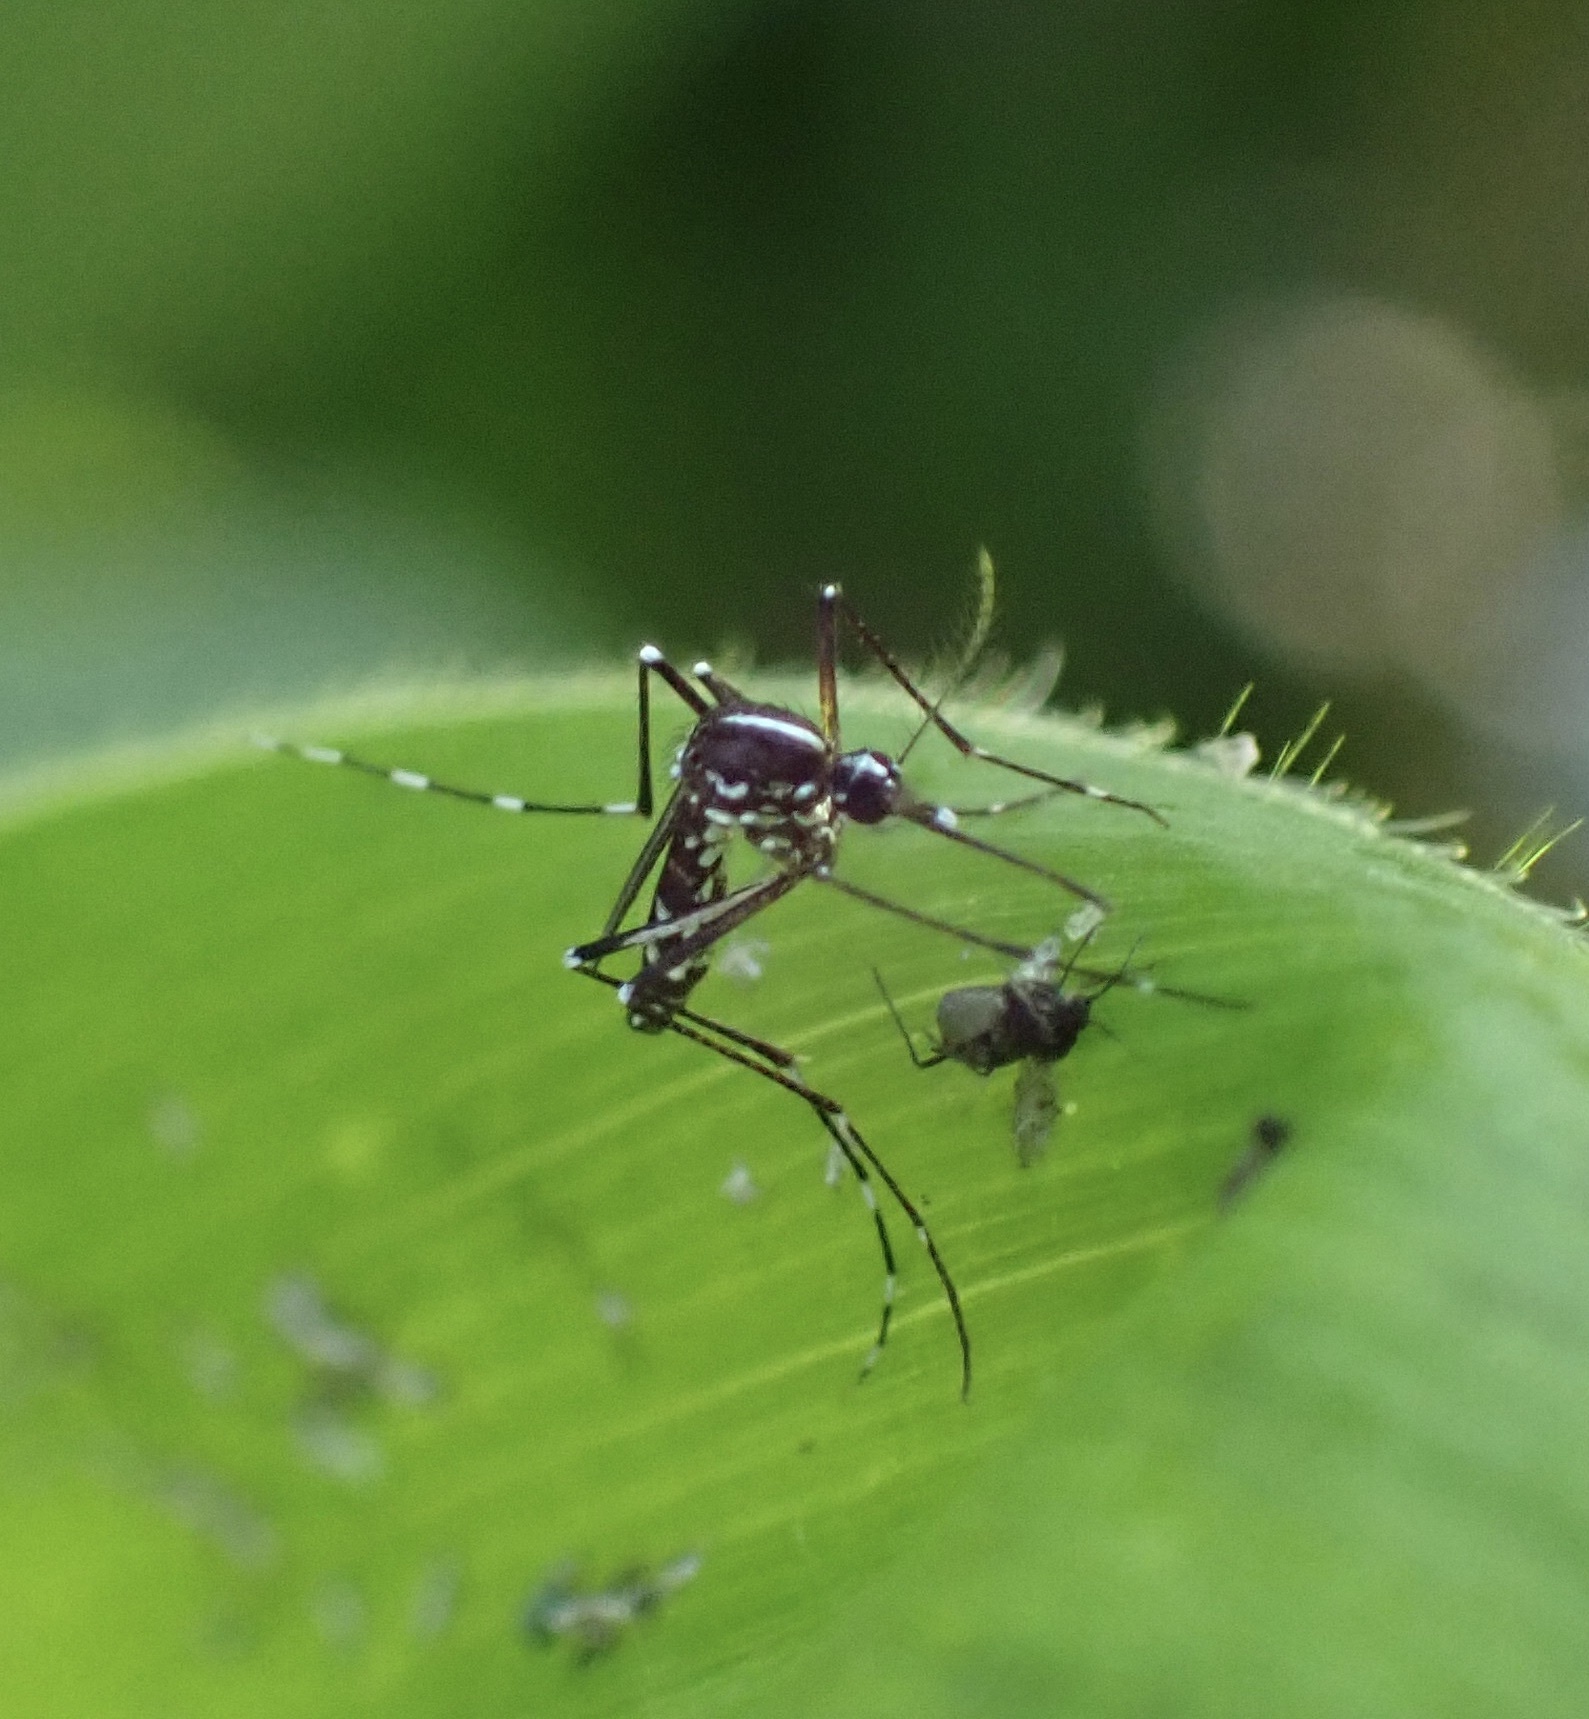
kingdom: Animalia
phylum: Arthropoda
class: Insecta
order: Diptera
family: Culicidae
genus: Aedes
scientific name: Aedes albopictus
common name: Tiger mosquito
